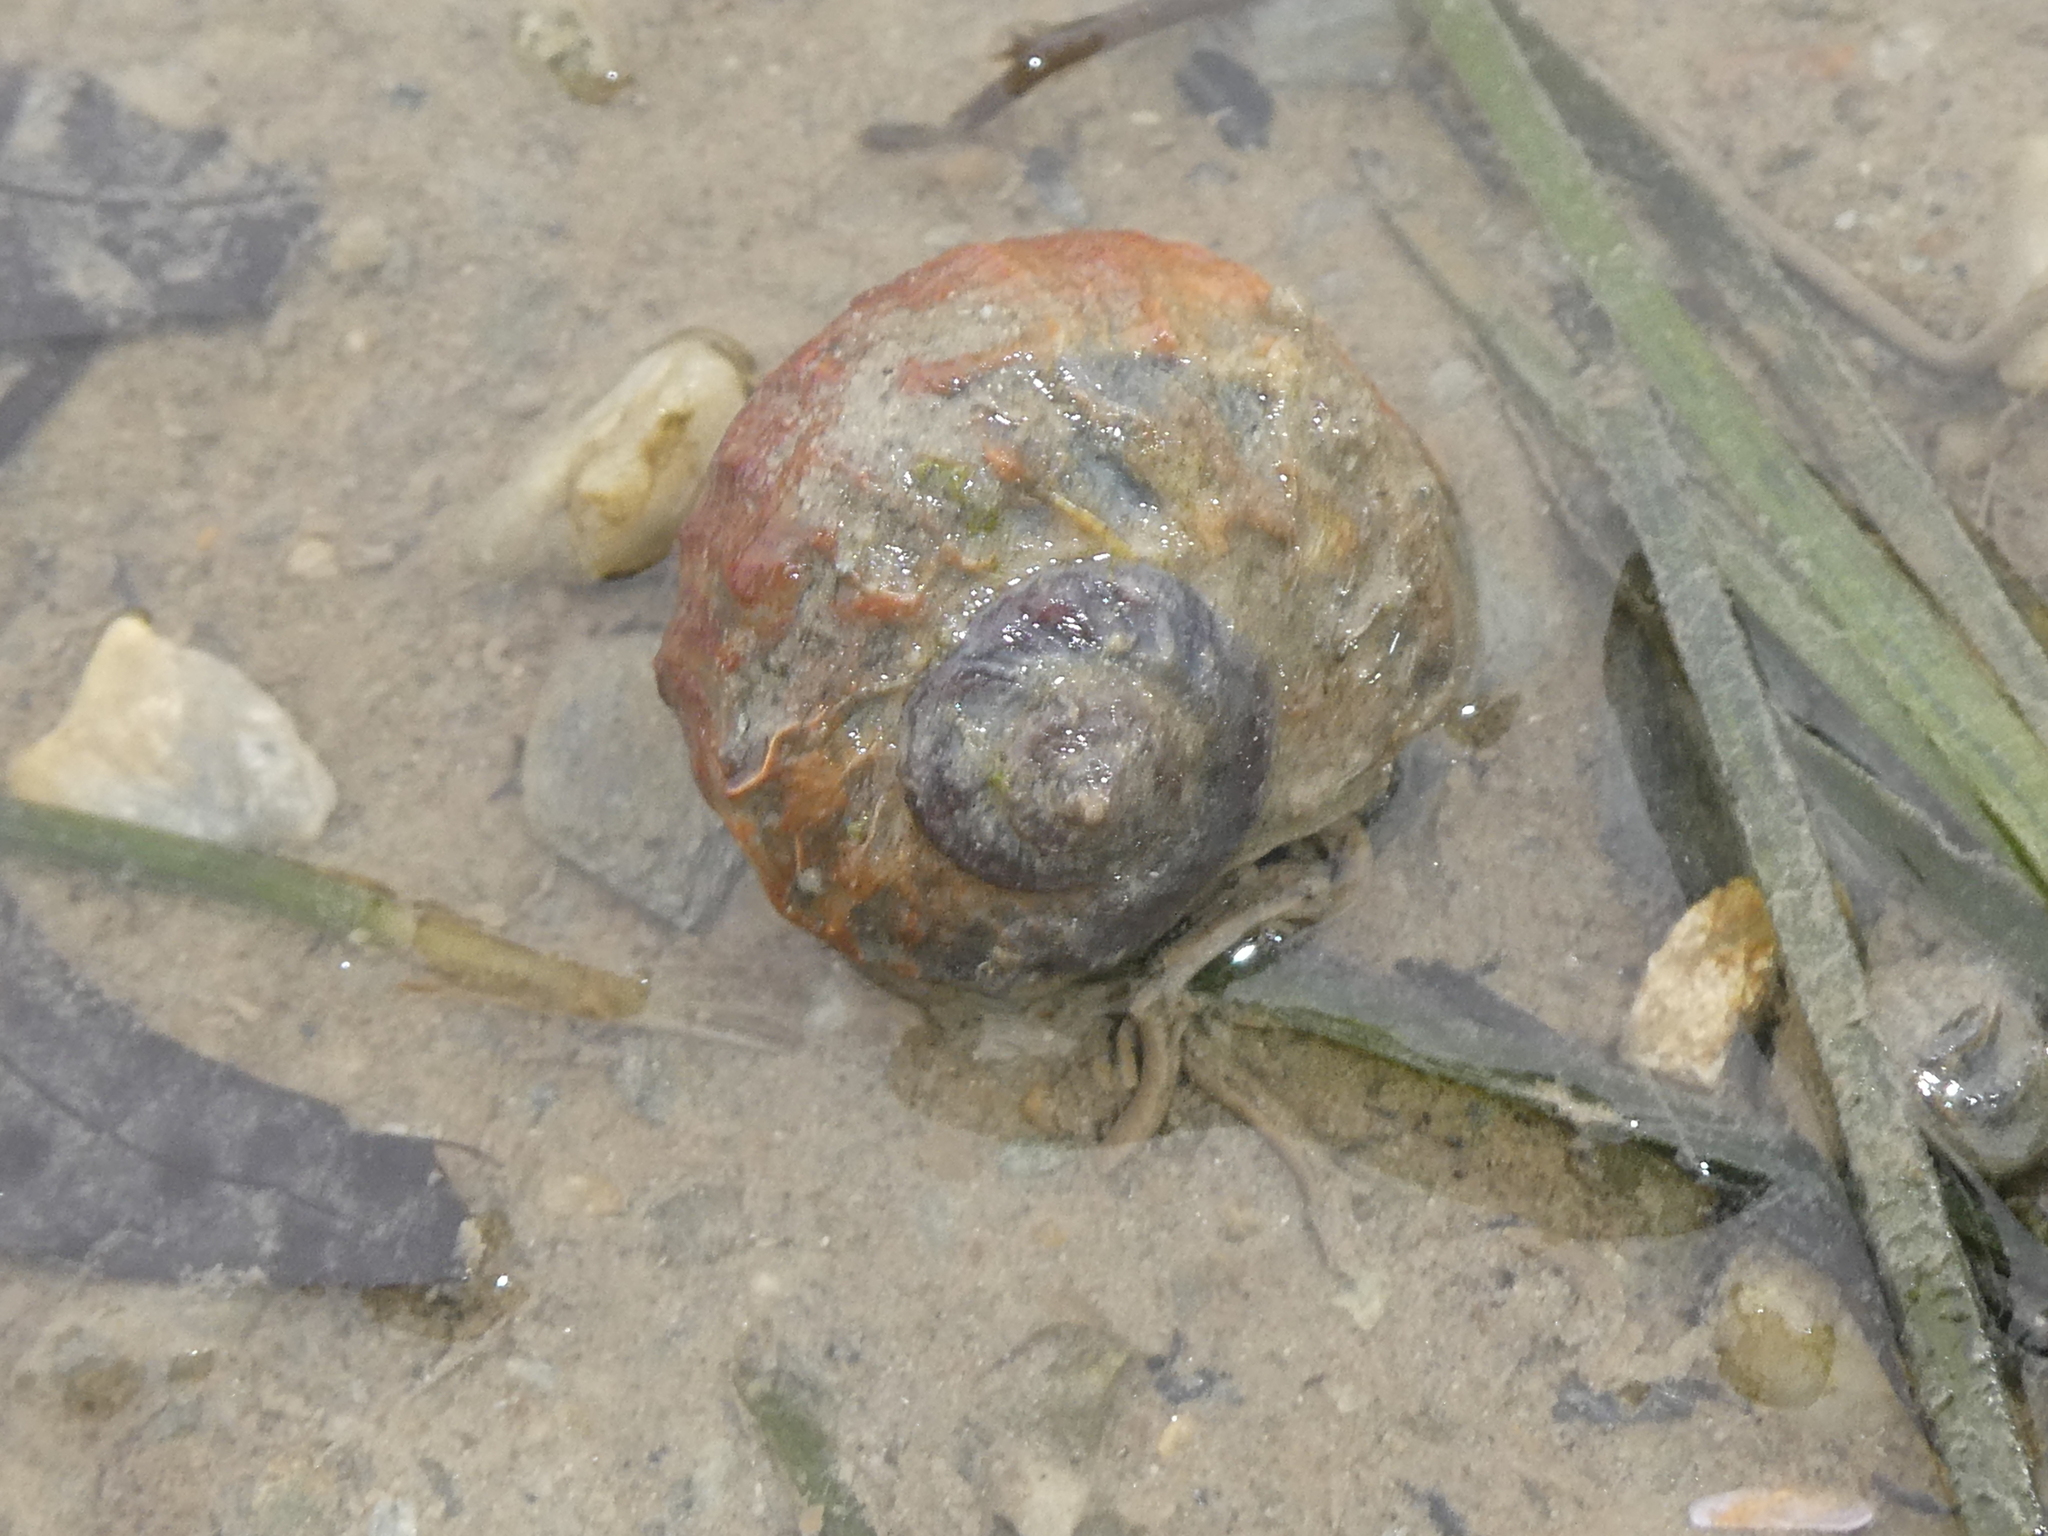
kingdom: Animalia
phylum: Mollusca
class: Gastropoda
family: Amphibolidae
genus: Amphibola
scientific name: Amphibola crenata
